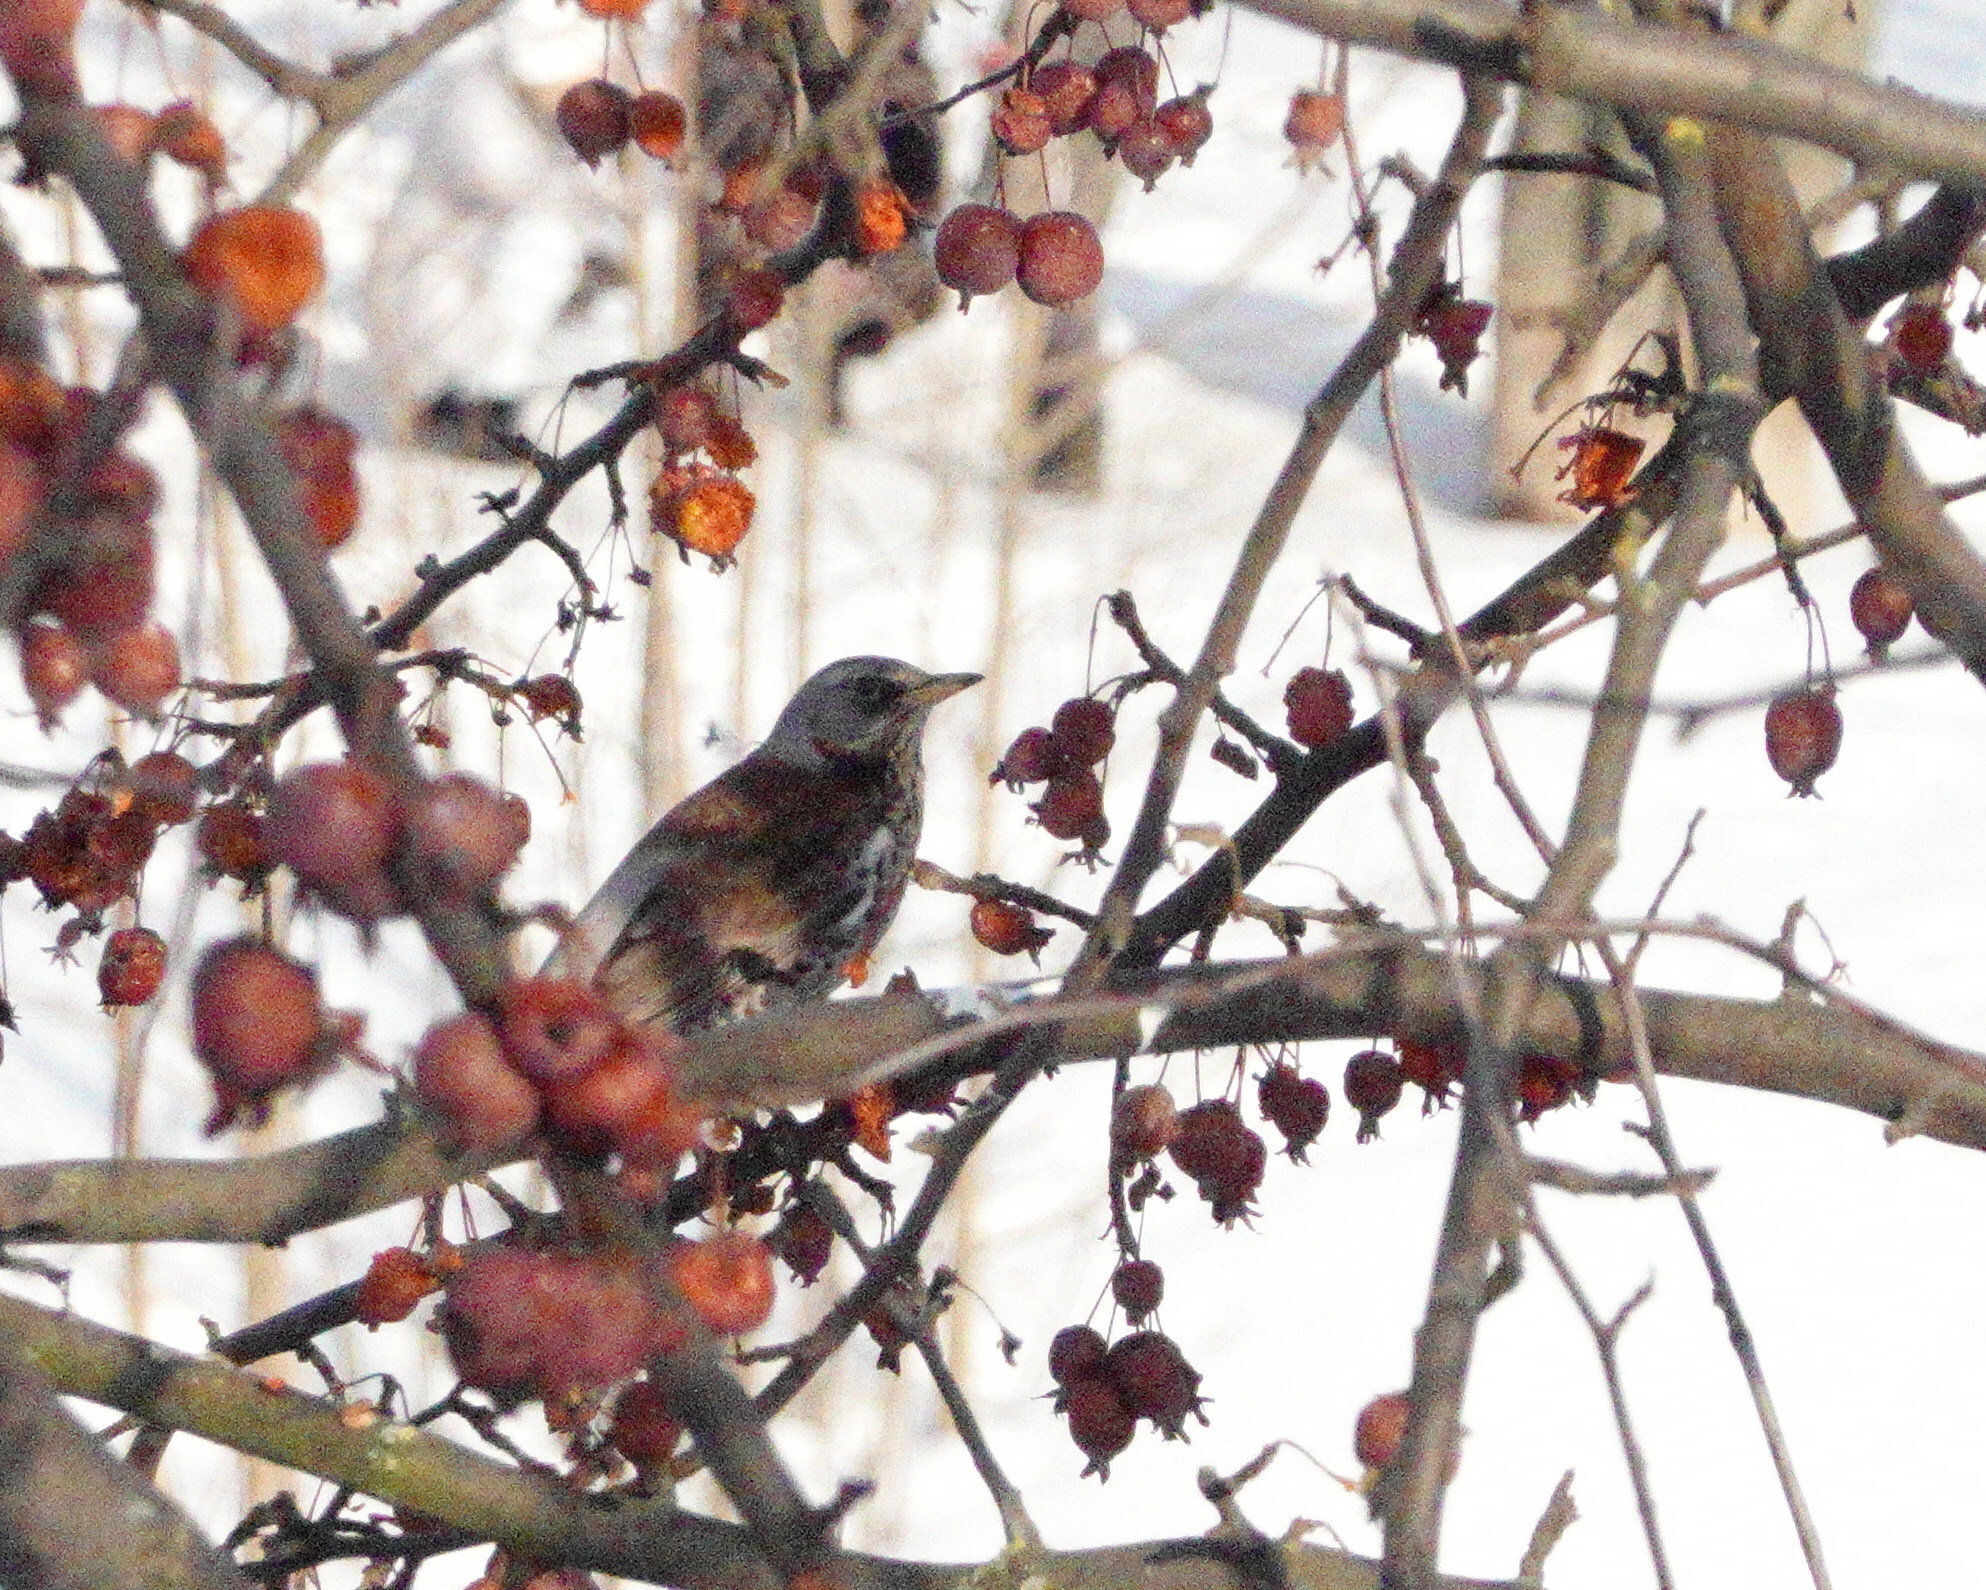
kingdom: Animalia
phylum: Chordata
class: Aves
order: Passeriformes
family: Turdidae
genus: Turdus
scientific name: Turdus pilaris
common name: Fieldfare
